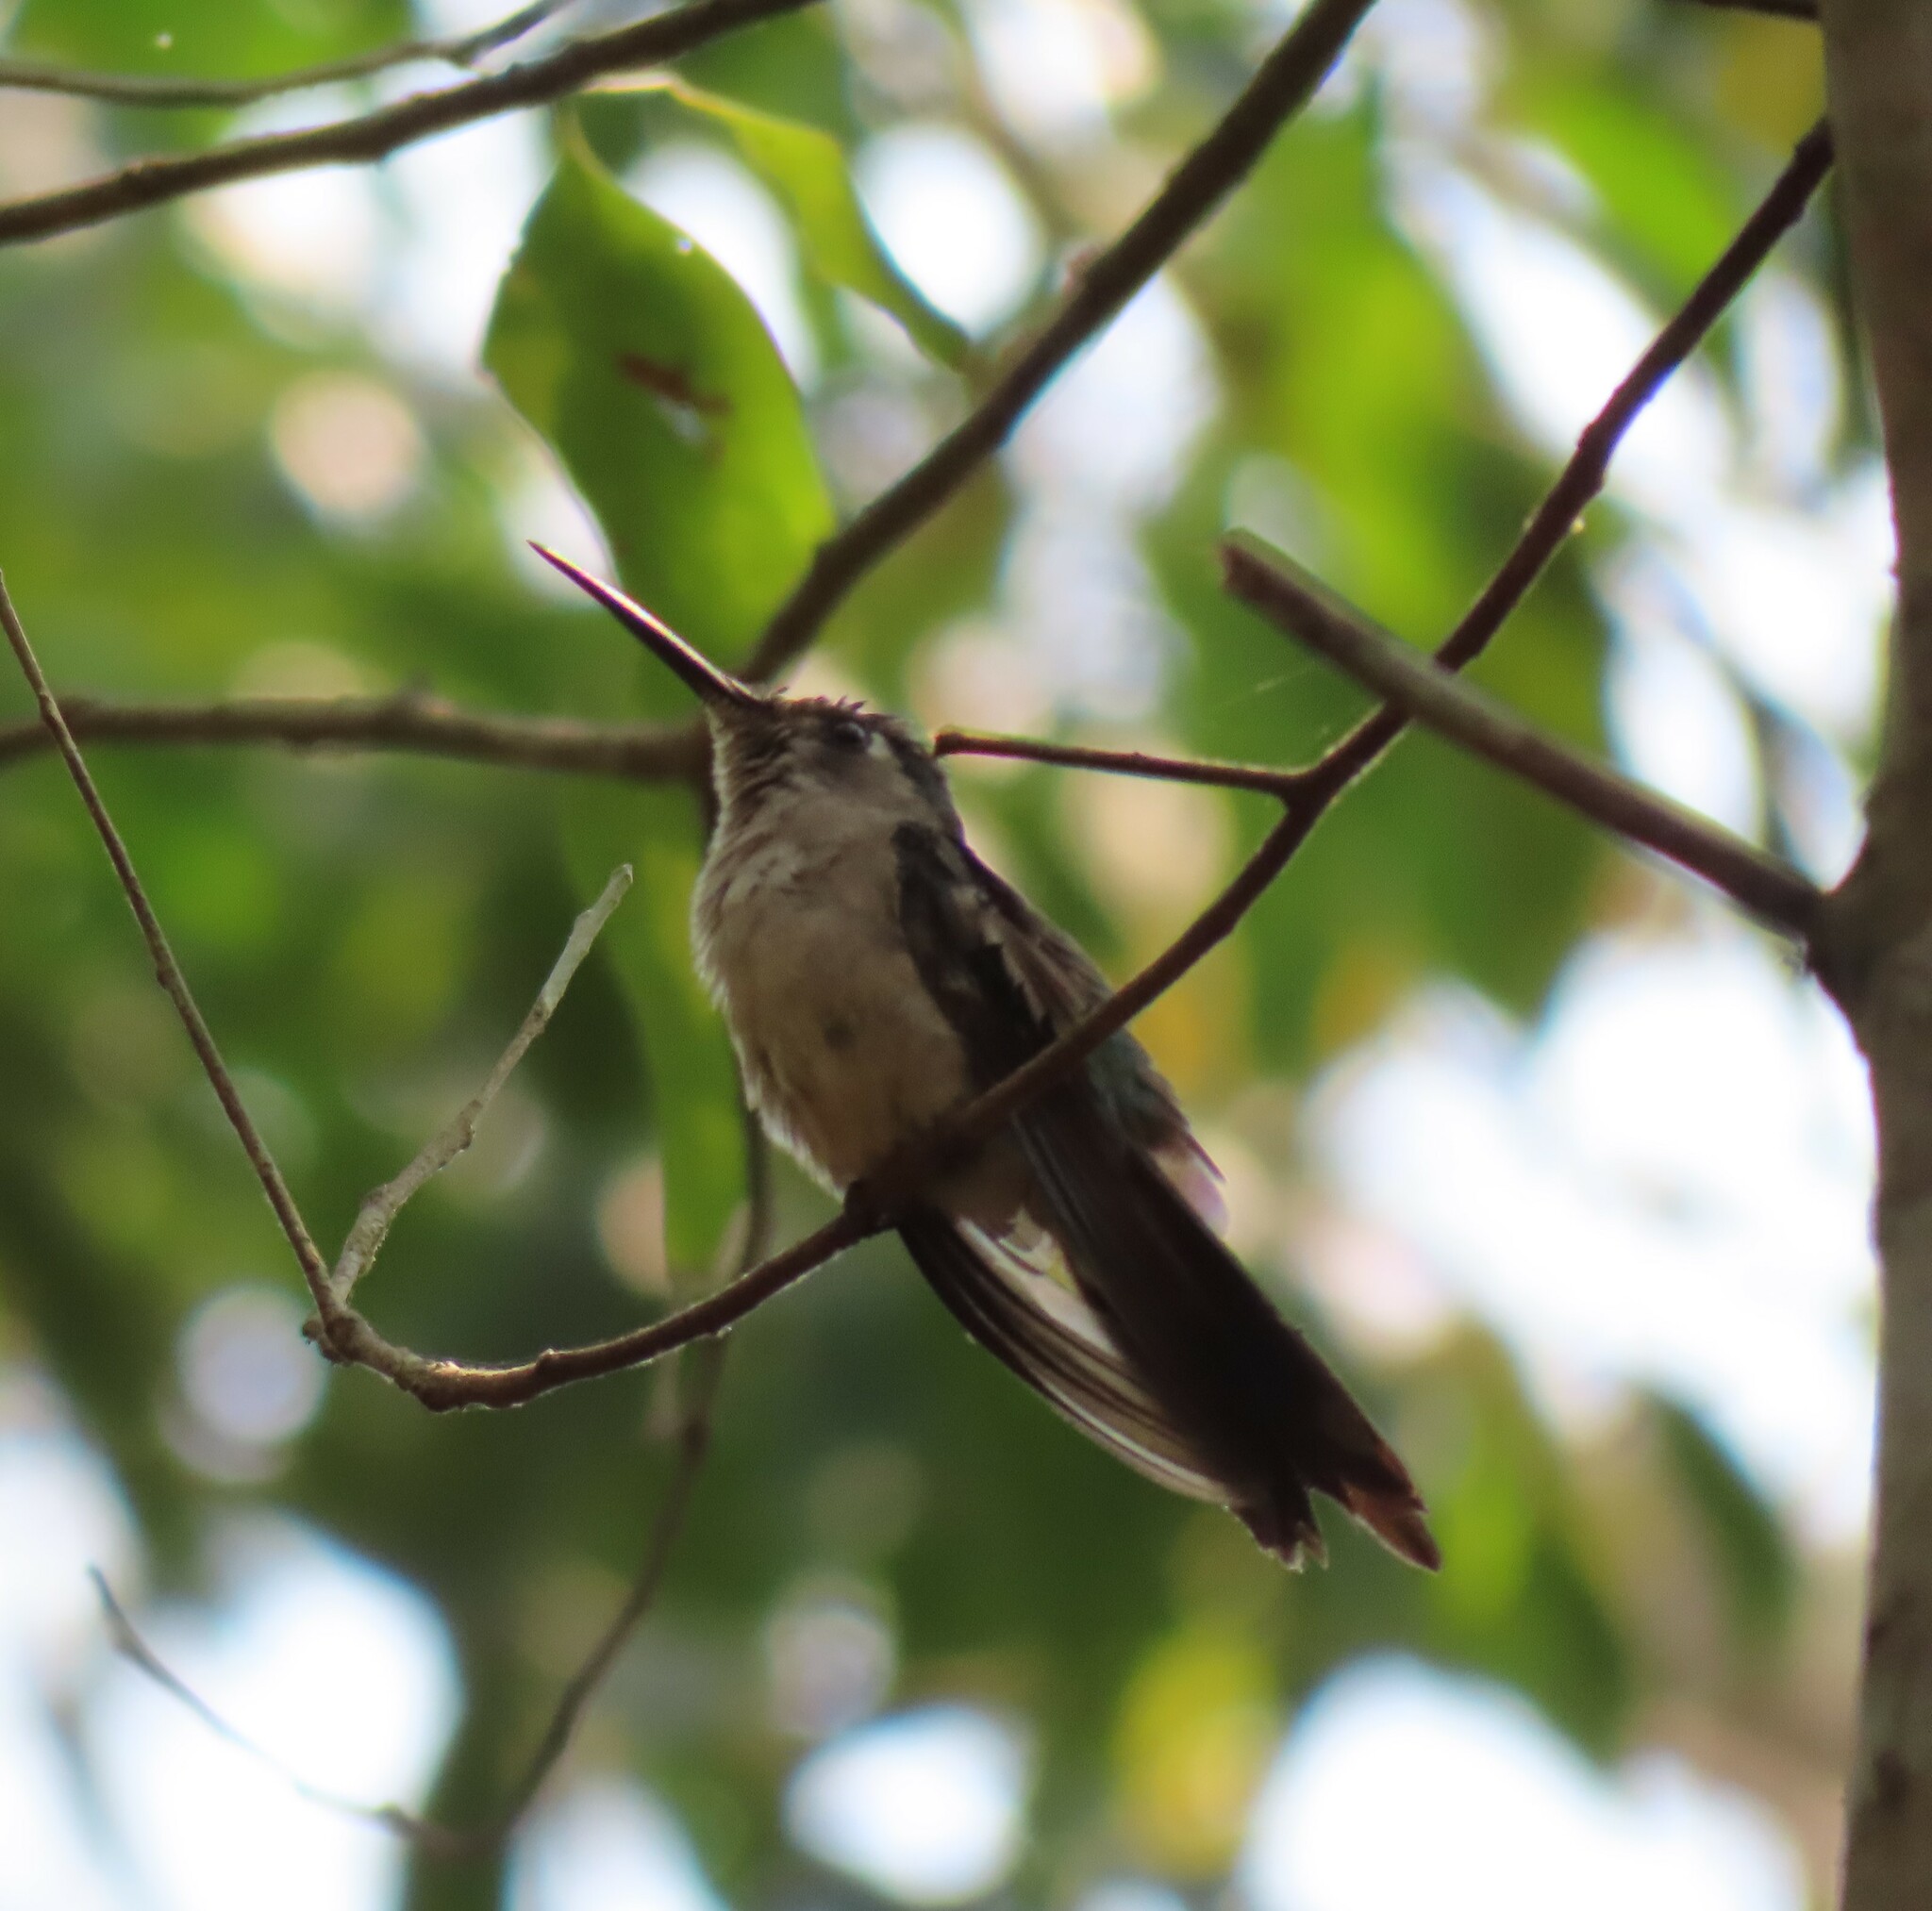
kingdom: Animalia
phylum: Chordata
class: Aves
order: Apodiformes
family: Trochilidae
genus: Pampa
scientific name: Pampa curvipennis
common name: Curve-winged sabrewing
